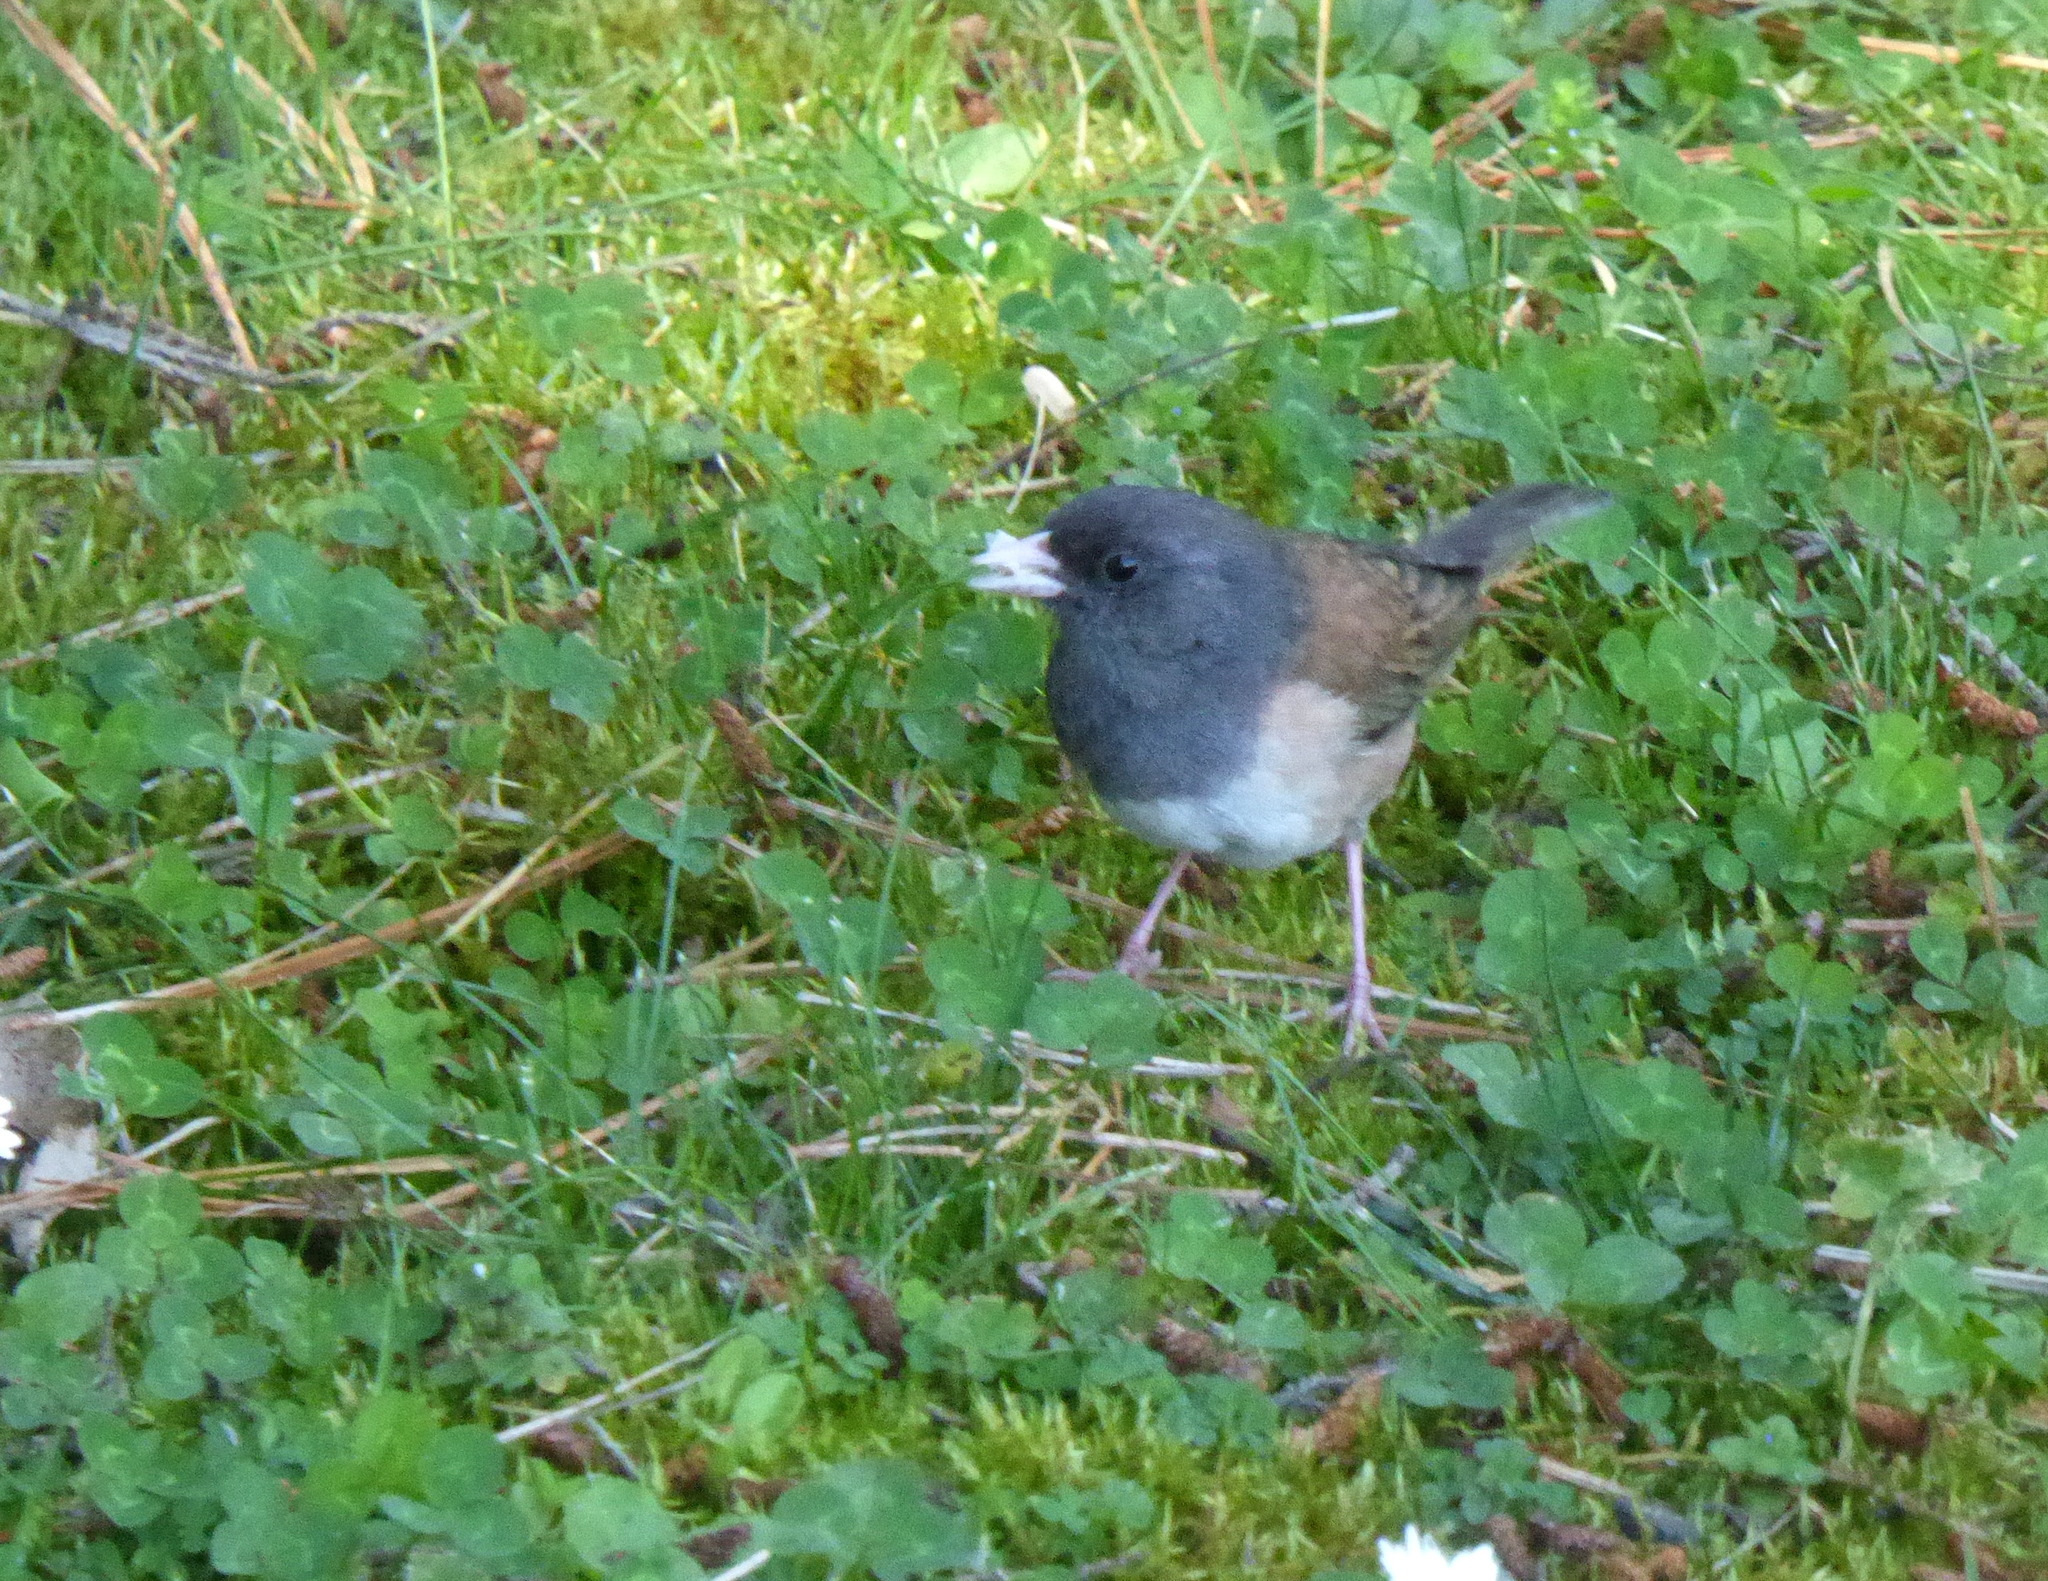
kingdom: Animalia
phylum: Chordata
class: Aves
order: Passeriformes
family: Passerellidae
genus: Junco
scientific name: Junco hyemalis
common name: Dark-eyed junco
